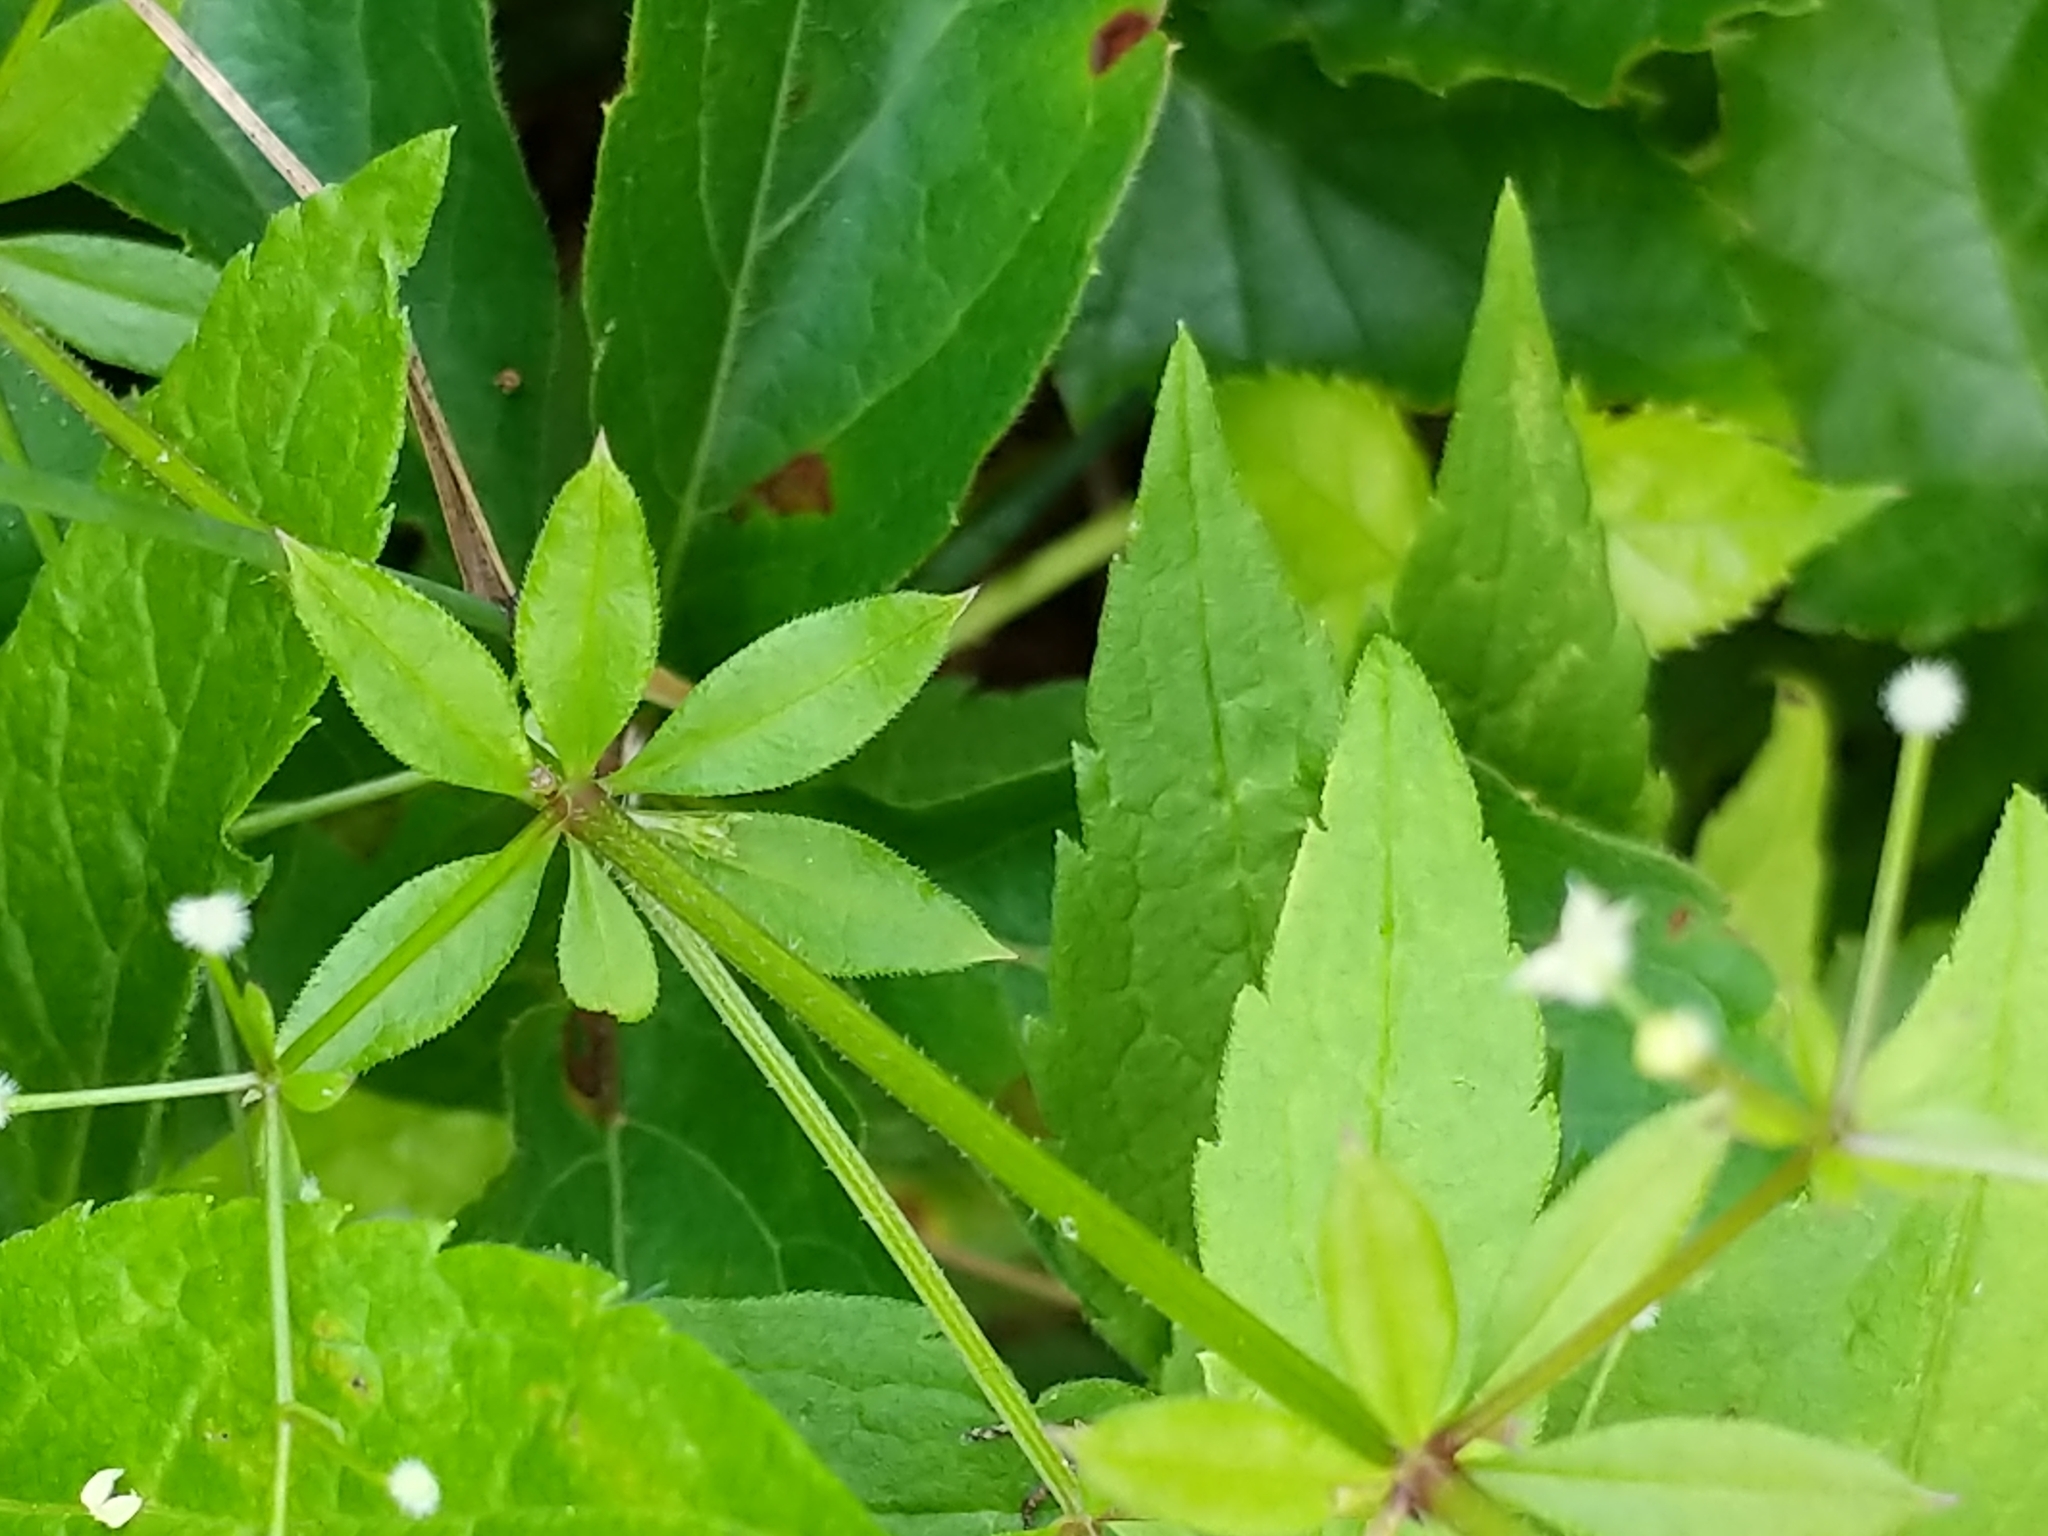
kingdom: Plantae
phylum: Tracheophyta
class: Magnoliopsida
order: Gentianales
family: Rubiaceae
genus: Galium
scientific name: Galium triflorum
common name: Fragrant bedstraw
